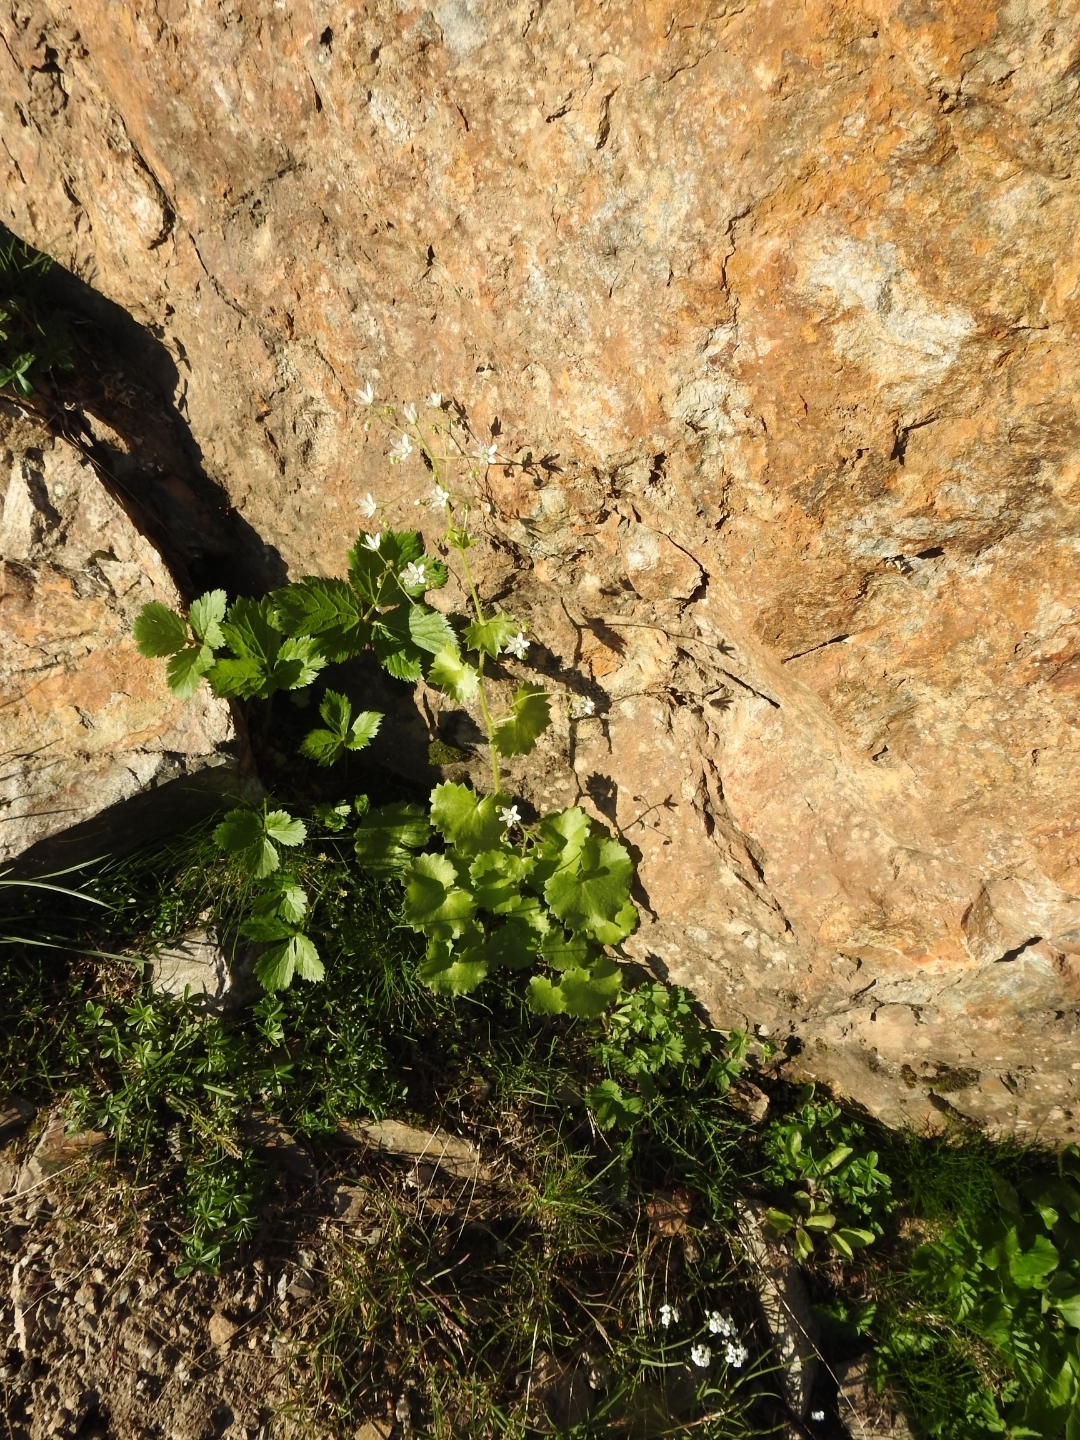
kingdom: Plantae
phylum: Tracheophyta
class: Magnoliopsida
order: Saxifragales
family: Saxifragaceae
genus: Saxifraga
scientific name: Saxifraga rotundifolia
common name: Round-leaved saxifrage
